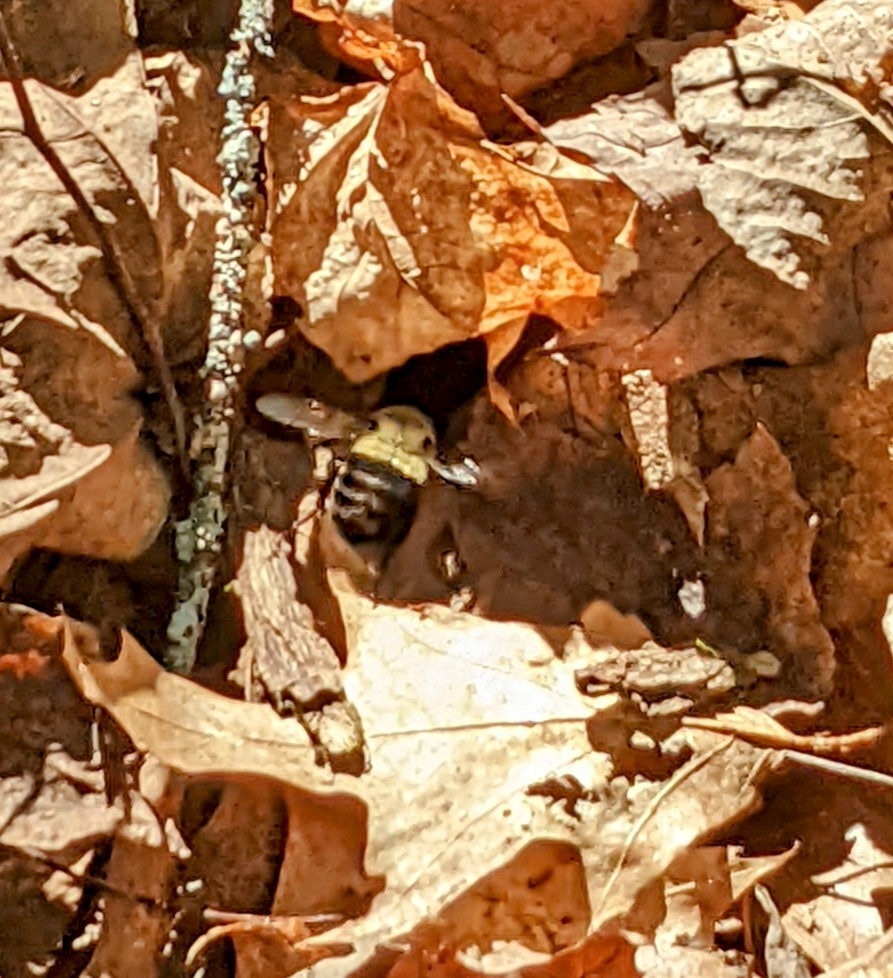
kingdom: Animalia
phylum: Arthropoda
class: Insecta
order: Hymenoptera
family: Apidae
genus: Bombus
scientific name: Bombus impatiens
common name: Common eastern bumble bee
